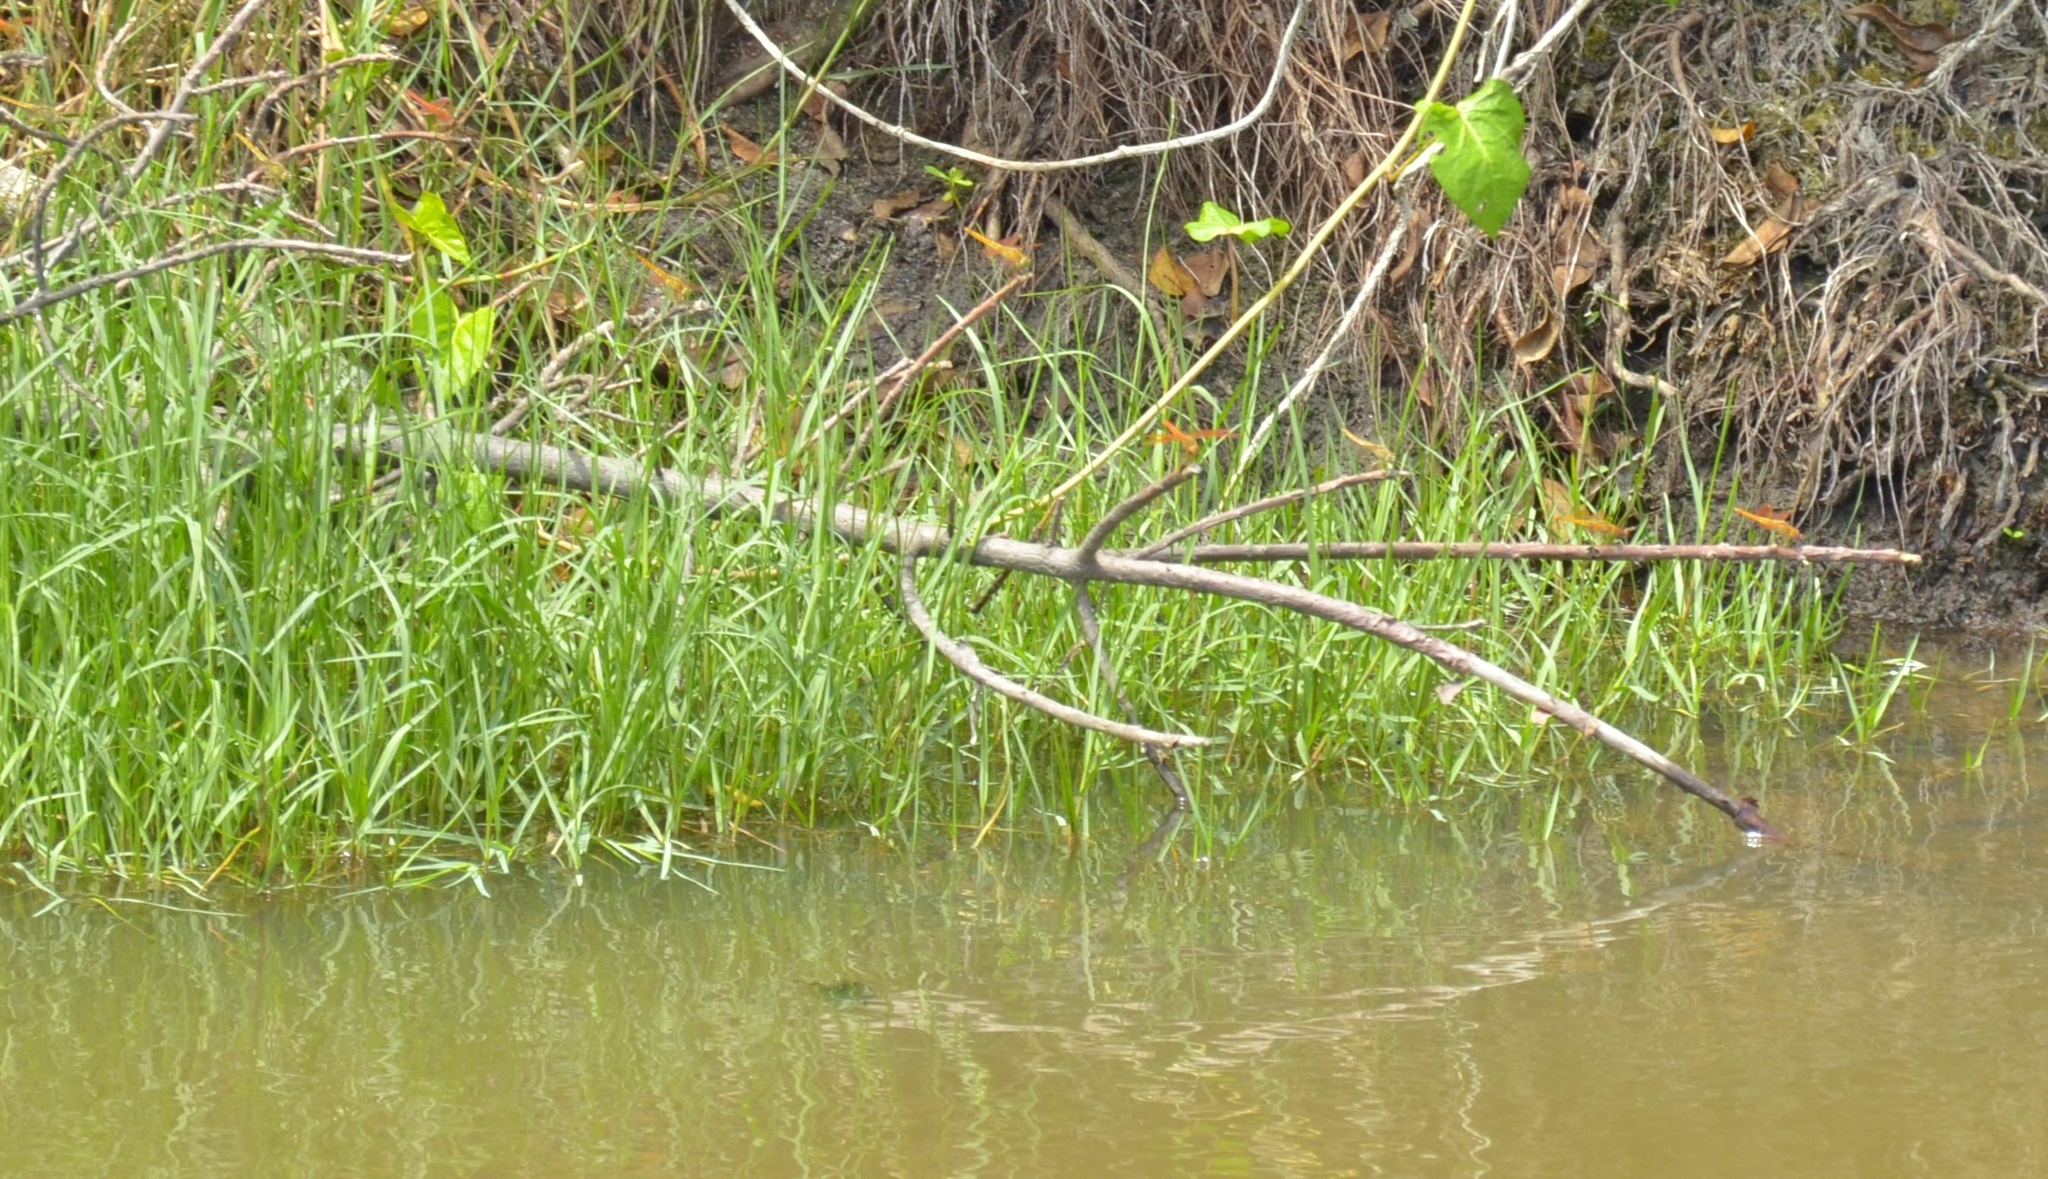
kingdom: Animalia
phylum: Arthropoda
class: Insecta
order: Odonata
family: Libellulidae
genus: Brachythemis
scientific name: Brachythemis contaminata
